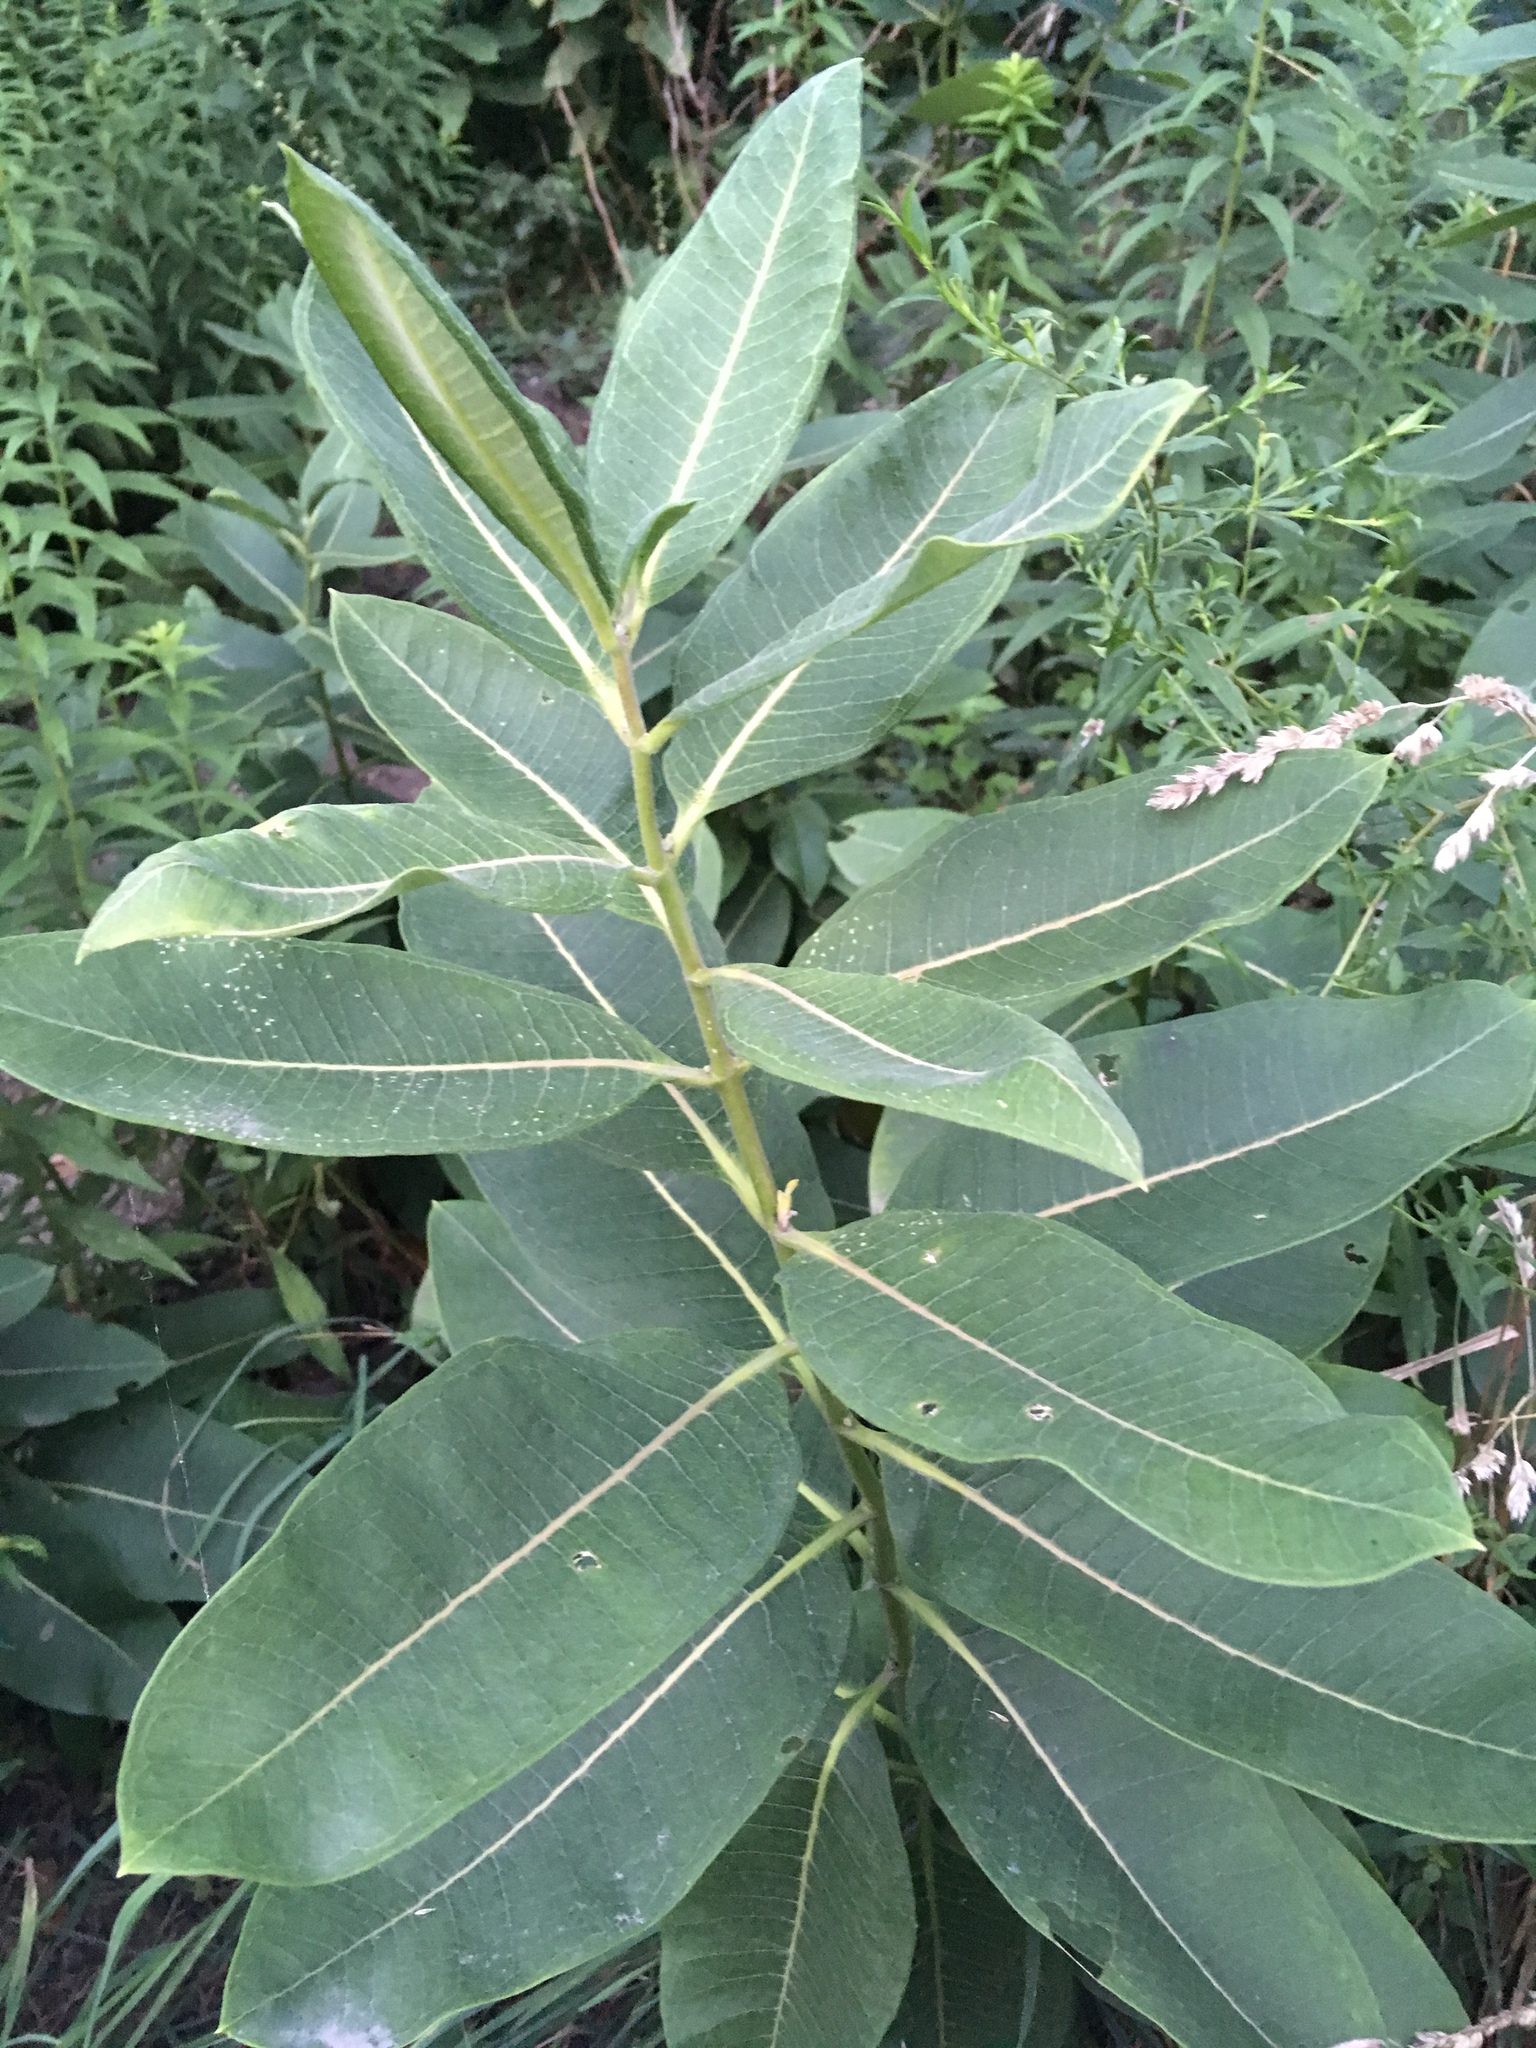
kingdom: Plantae
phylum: Tracheophyta
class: Magnoliopsida
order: Gentianales
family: Apocynaceae
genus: Asclepias
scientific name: Asclepias syriaca
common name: Common milkweed
